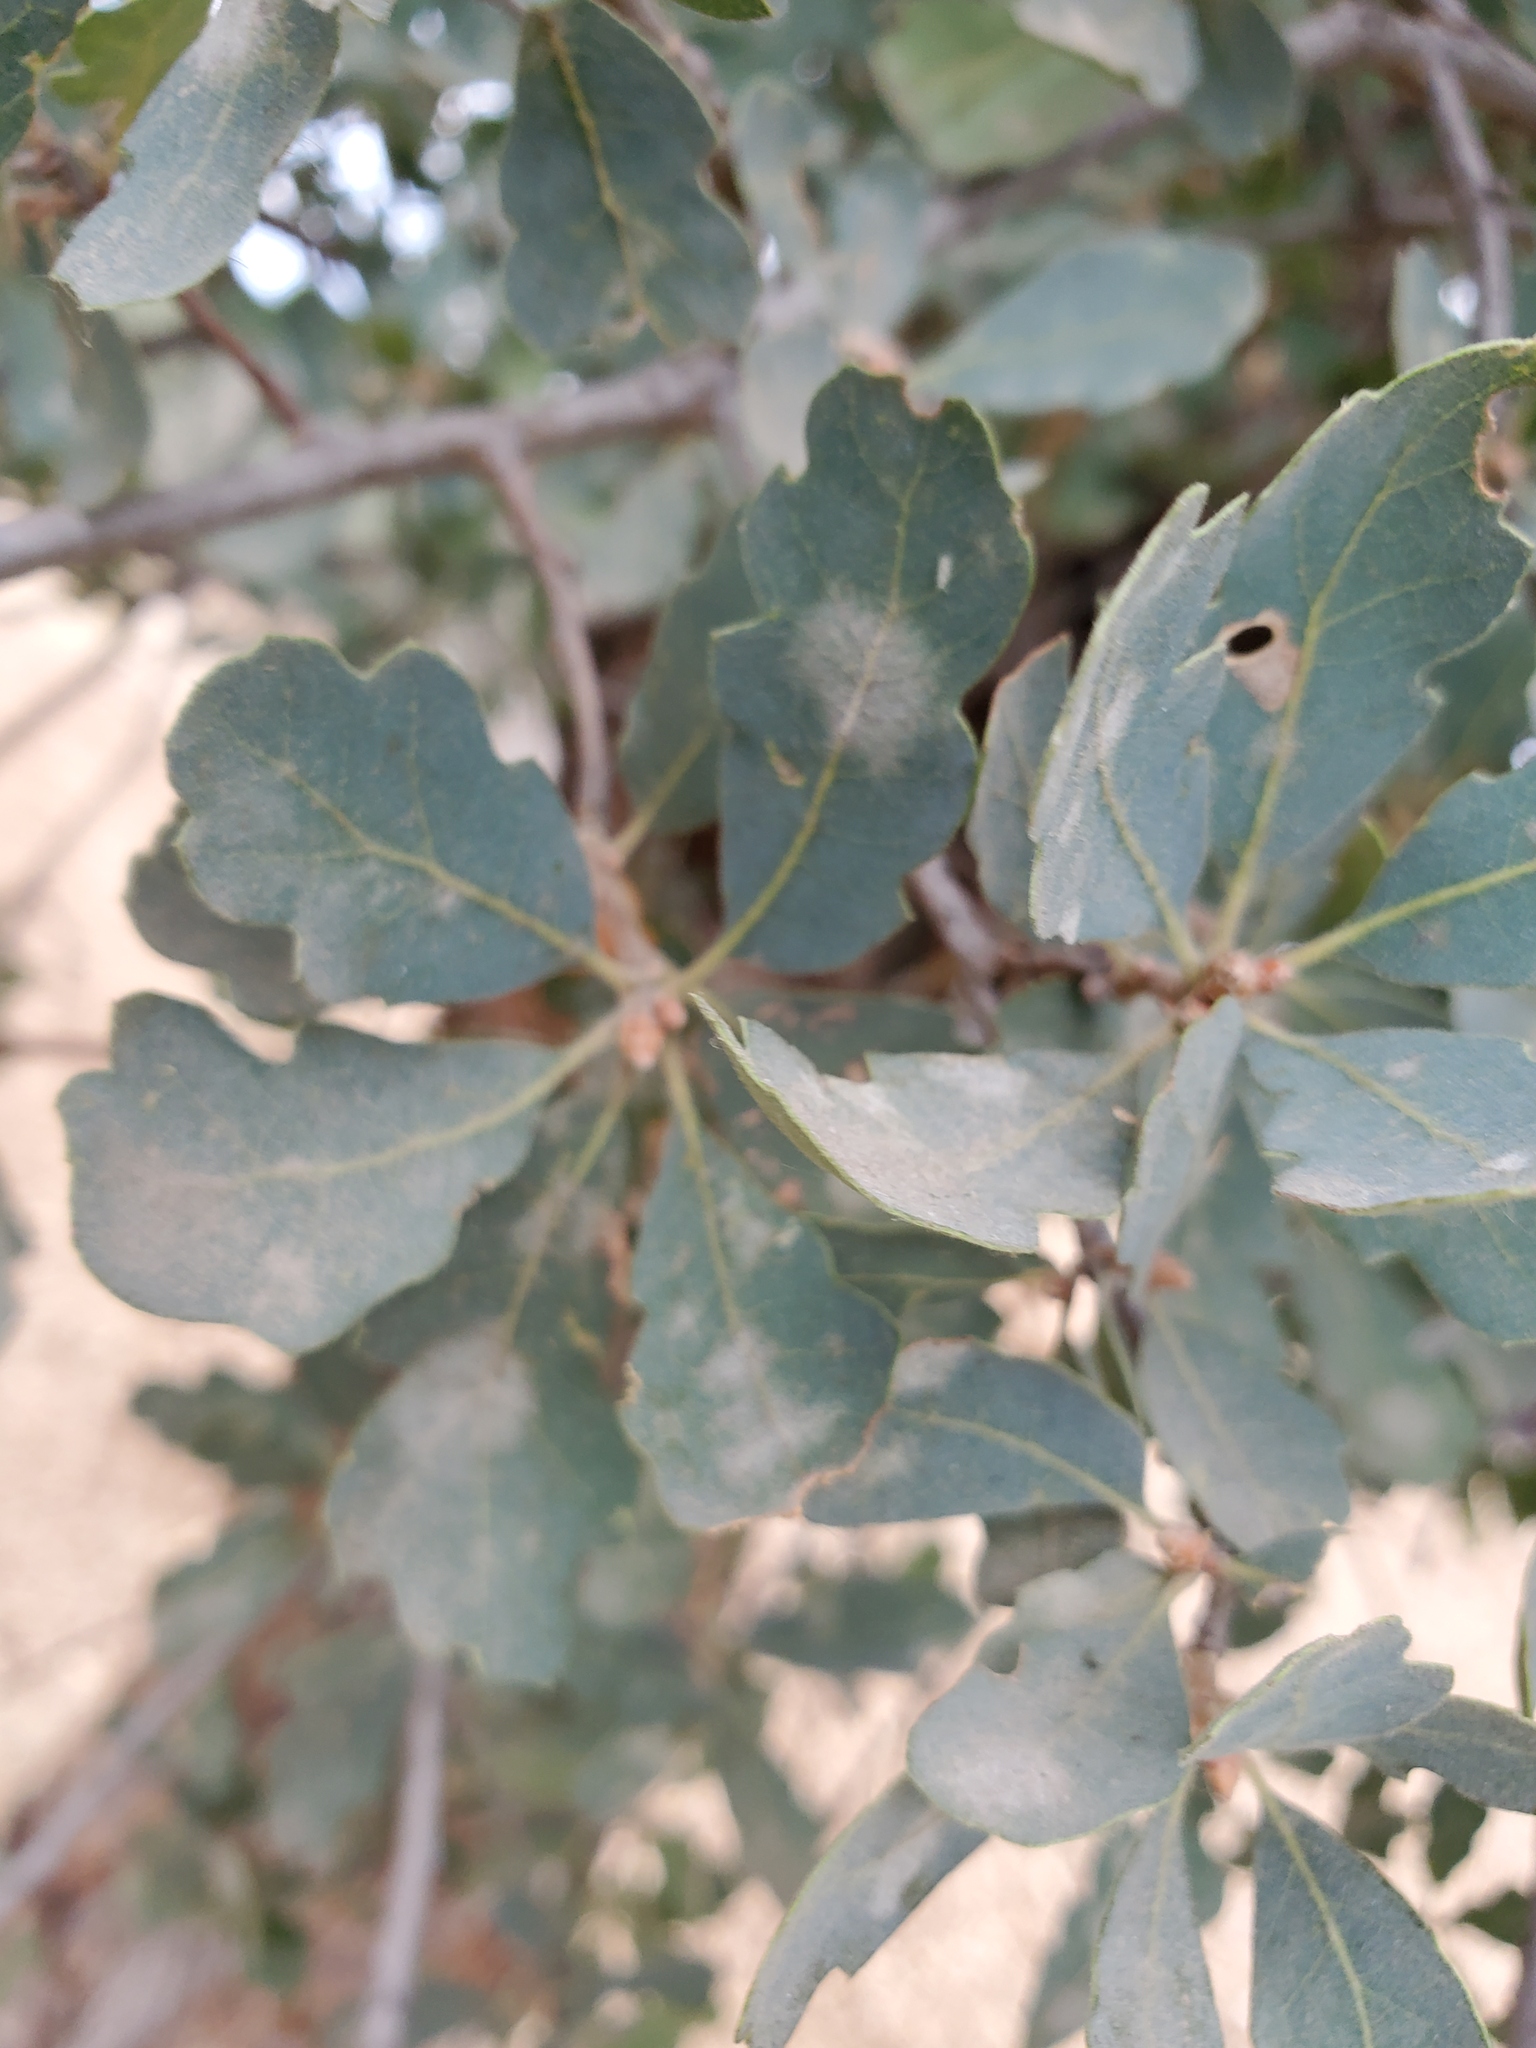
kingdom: Fungi
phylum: Ascomycota
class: Leotiomycetes
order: Helotiales
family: Erysiphaceae
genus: Erysiphe
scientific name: Erysiphe alphitoides
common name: Oak mildew
